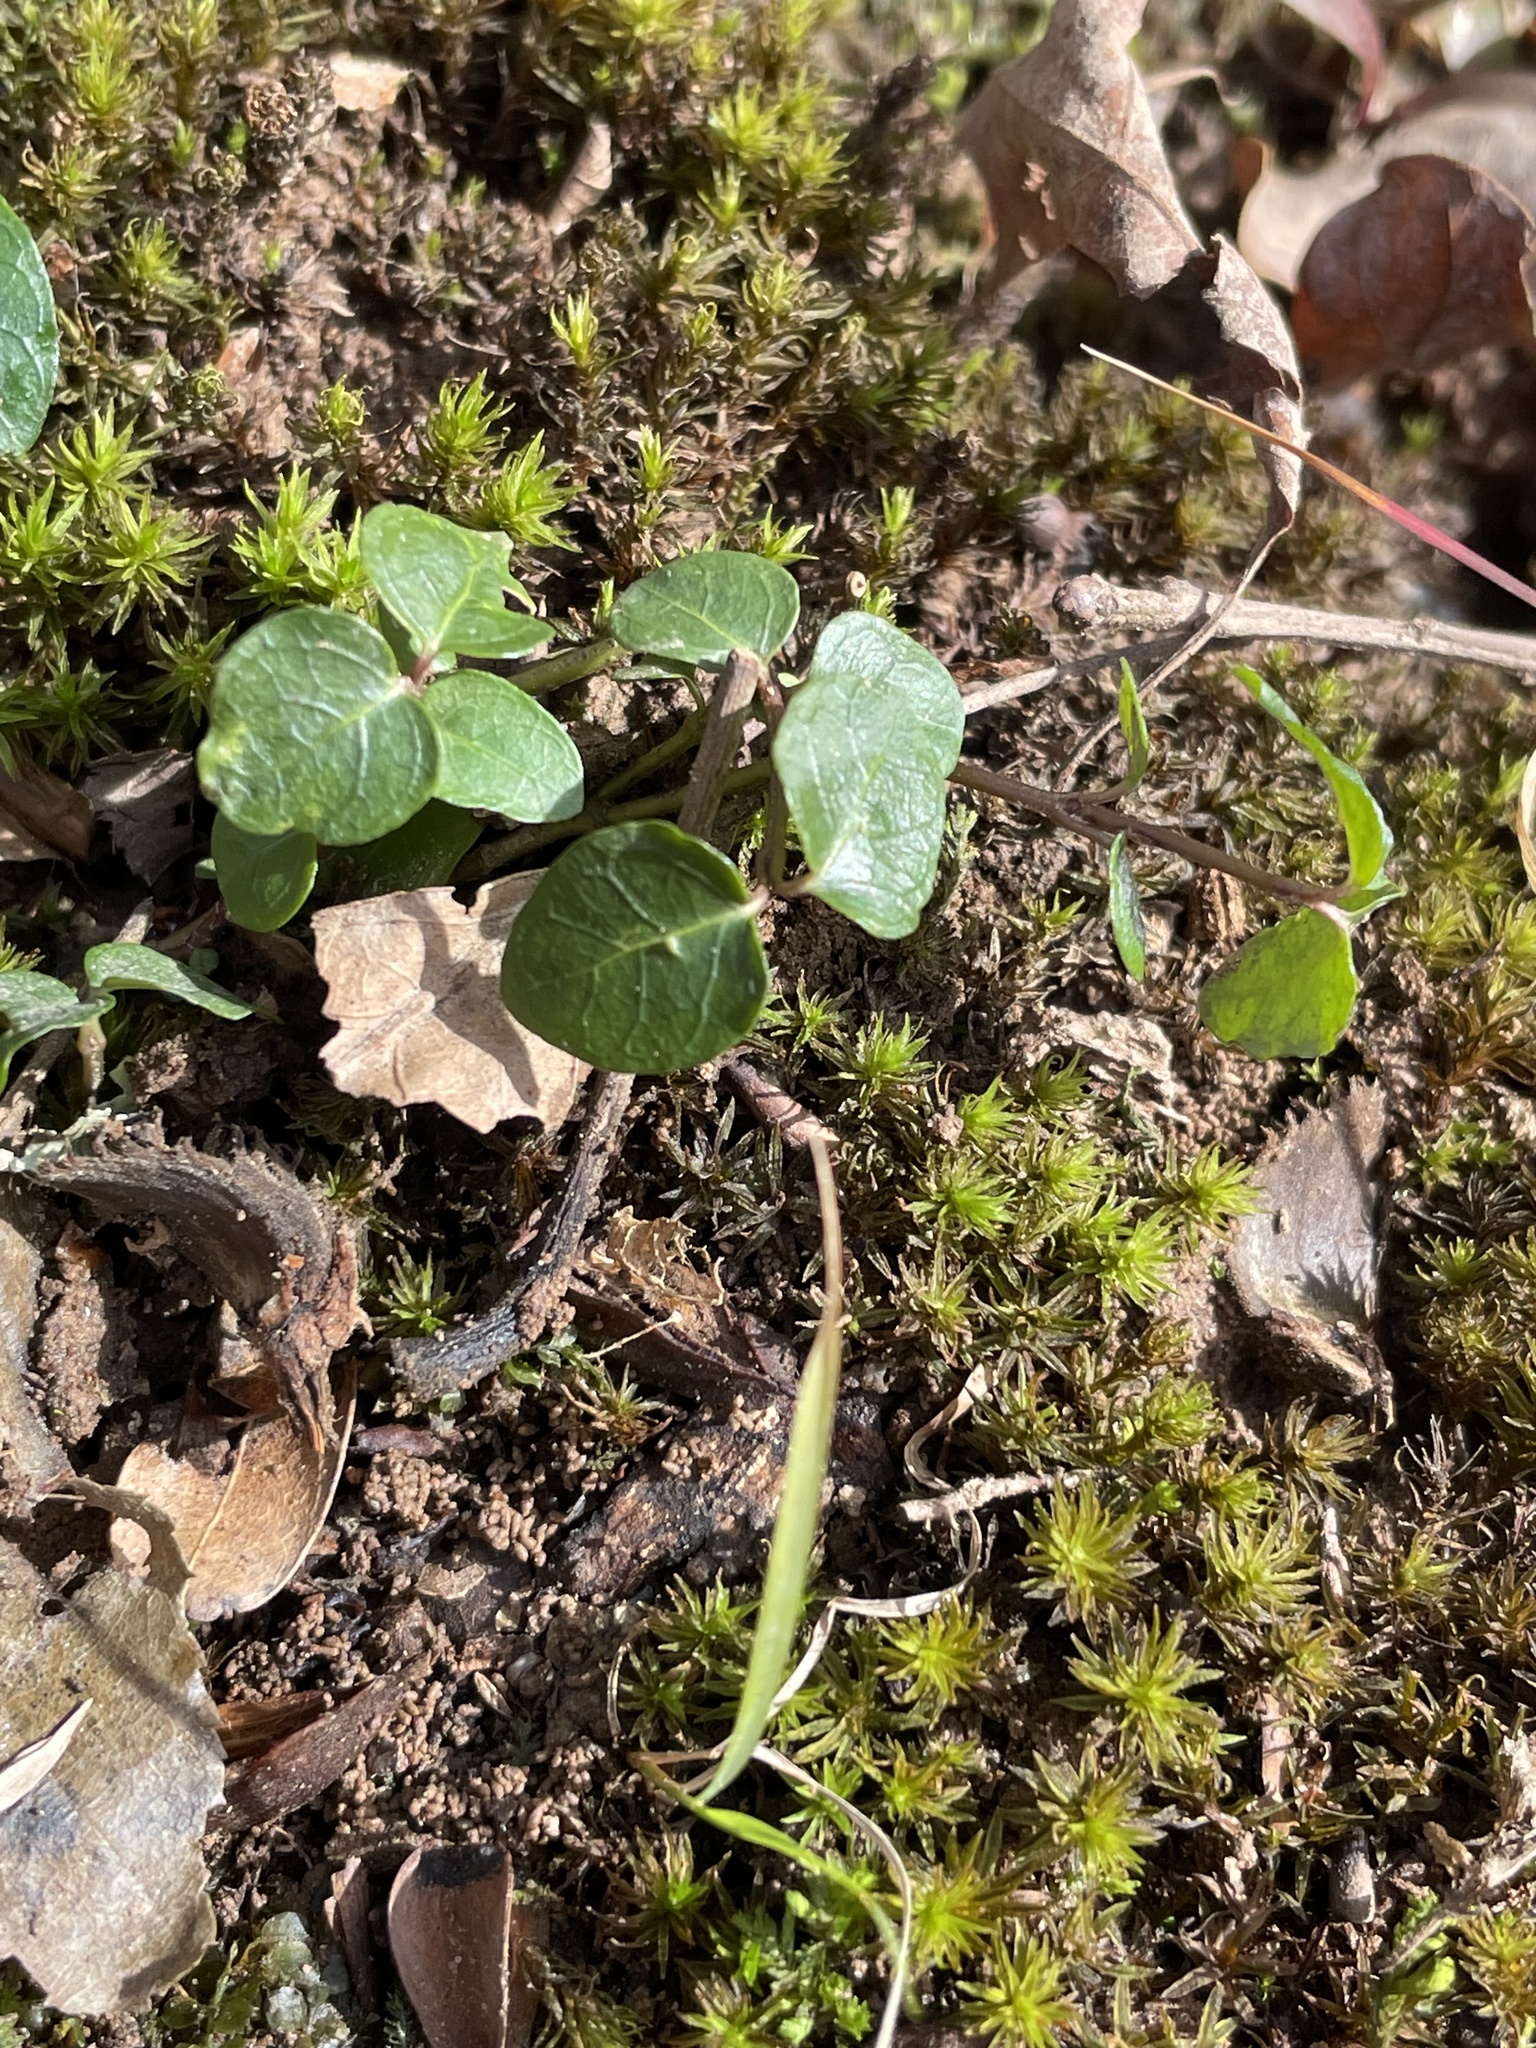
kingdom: Plantae
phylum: Tracheophyta
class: Magnoliopsida
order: Gentianales
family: Rubiaceae
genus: Mitchella
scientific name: Mitchella repens
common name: Partridge-berry
